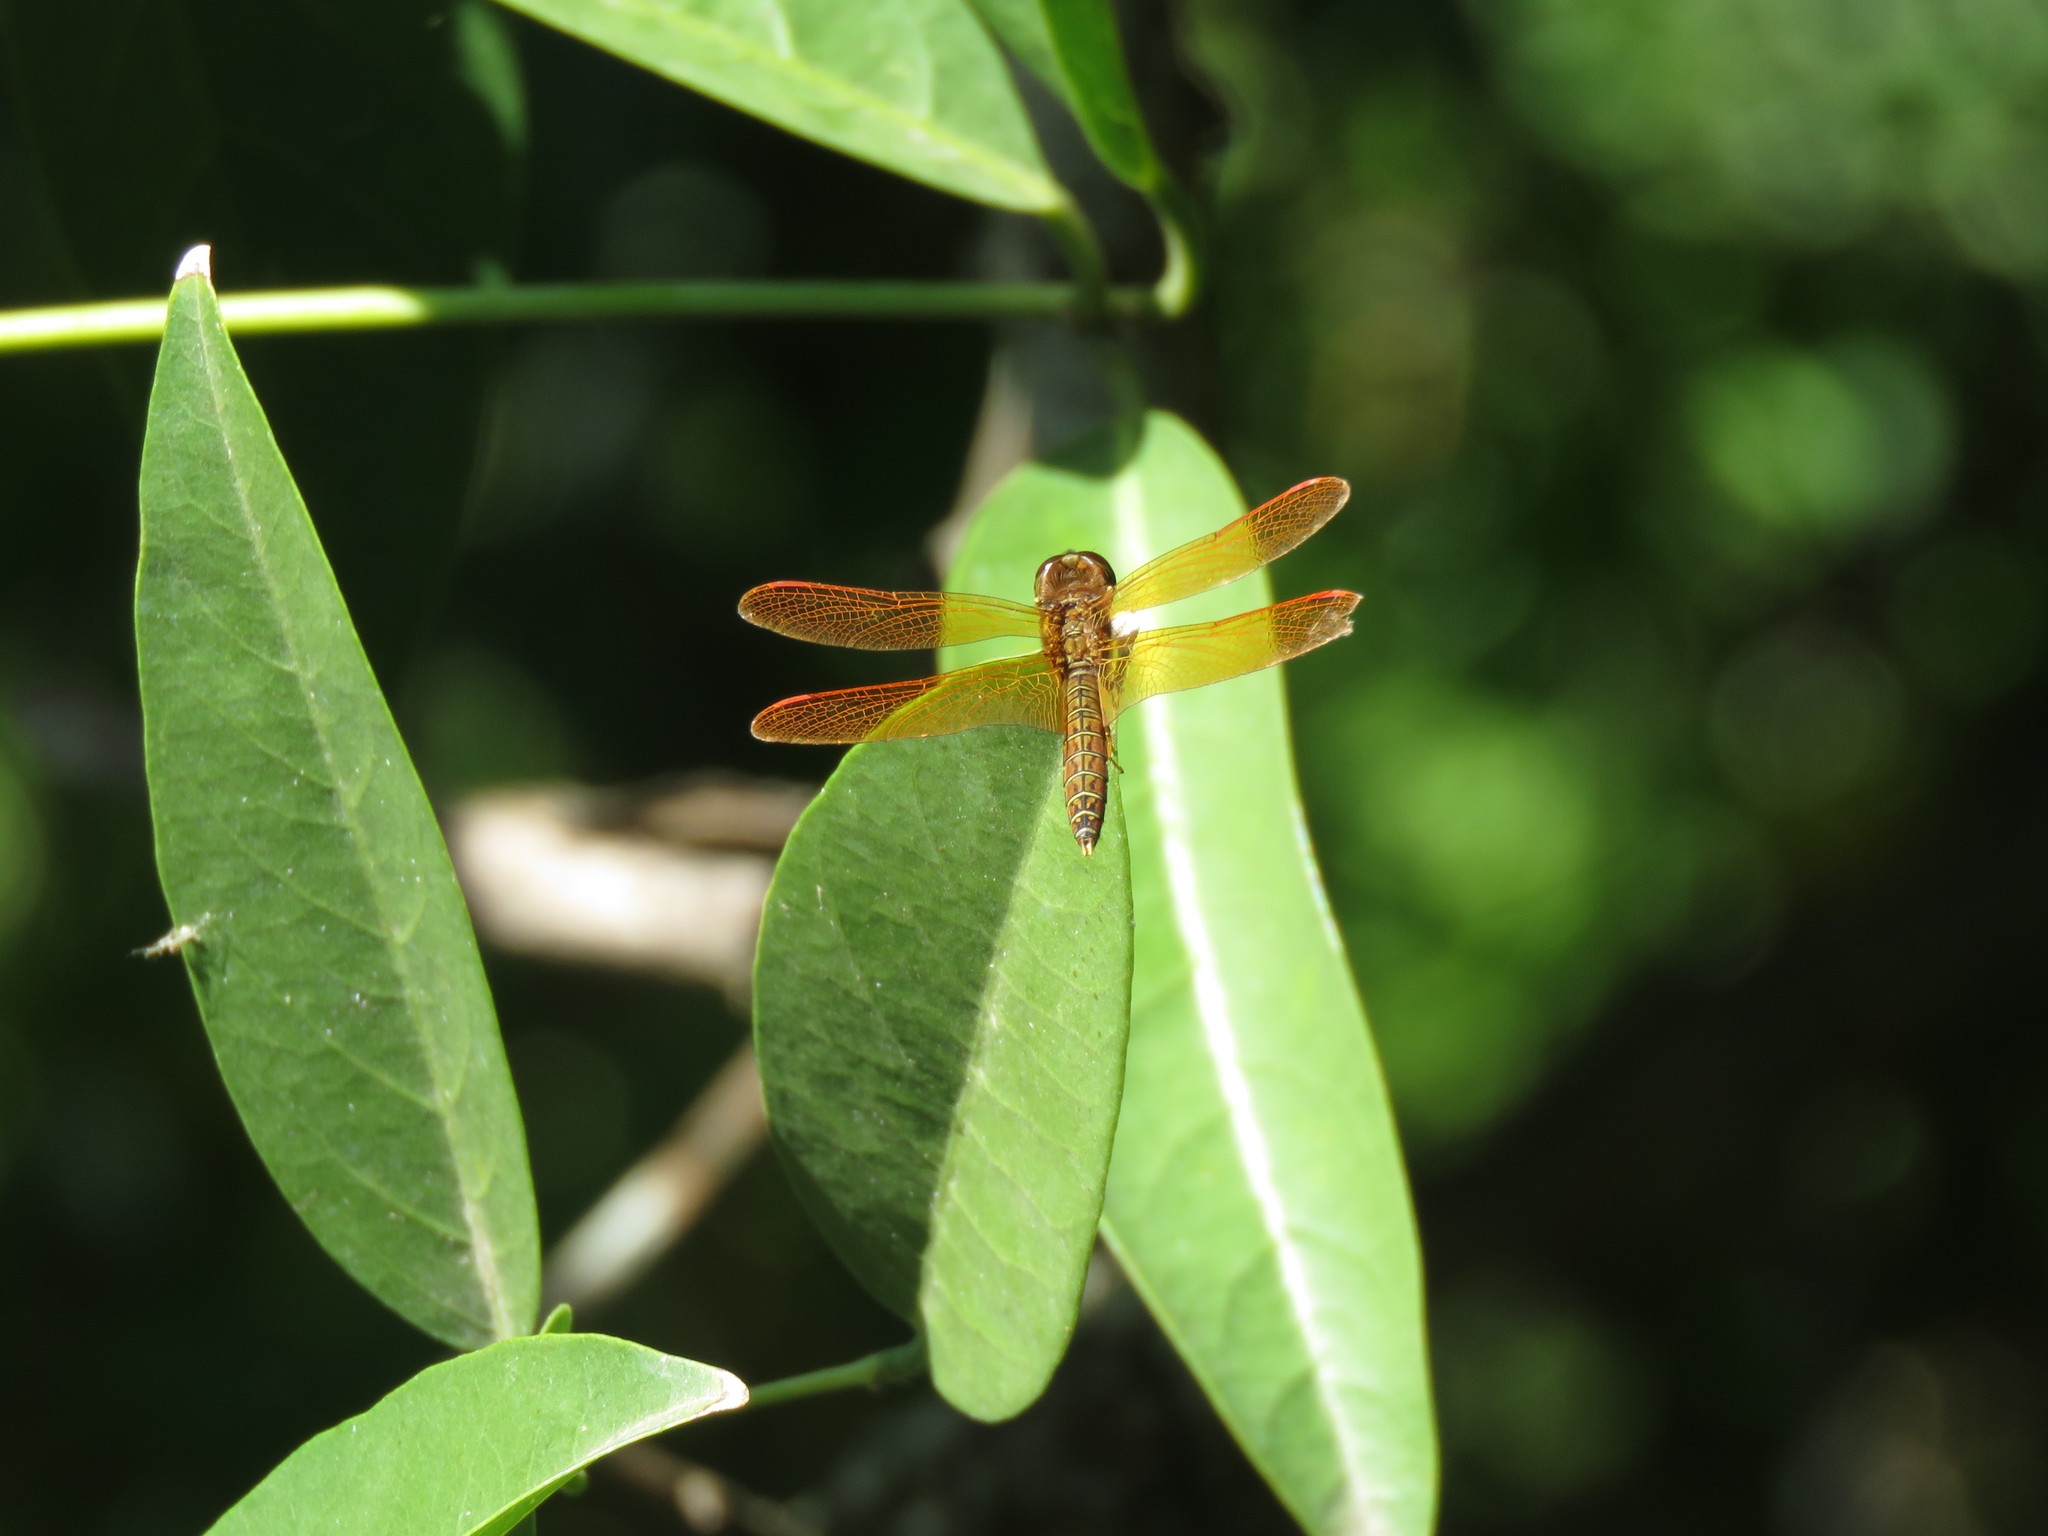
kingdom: Animalia
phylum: Arthropoda
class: Insecta
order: Odonata
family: Libellulidae
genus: Perithemis
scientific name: Perithemis tenera
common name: Eastern amberwing
